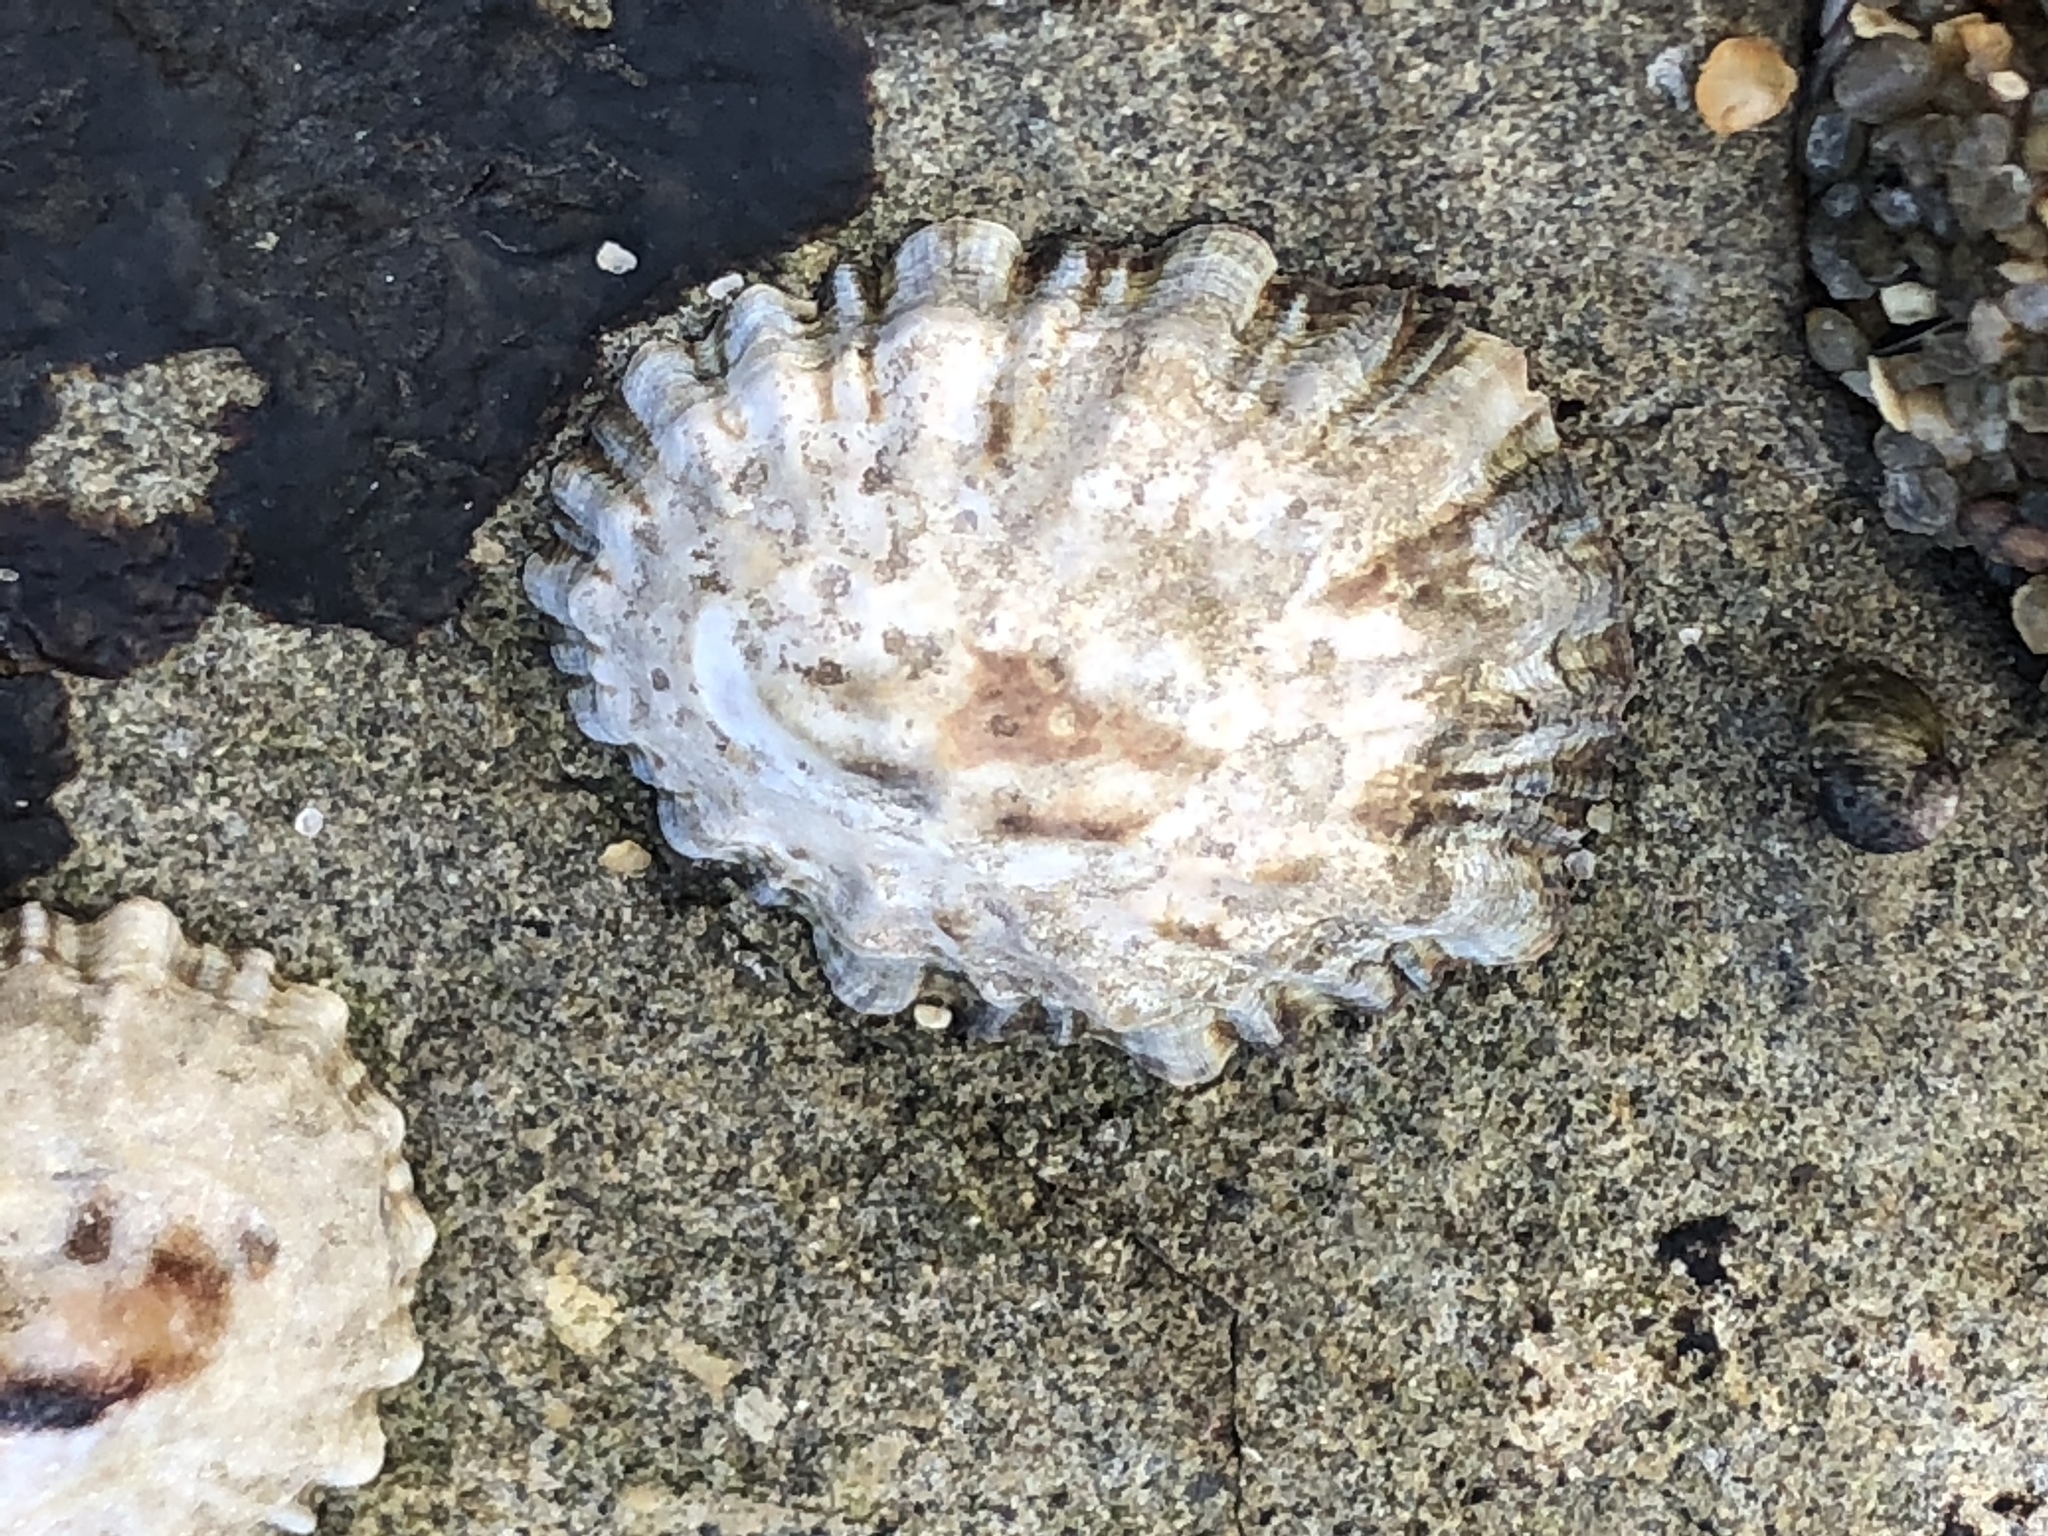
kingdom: Animalia
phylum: Mollusca
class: Gastropoda
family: Lottiidae
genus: Lottia
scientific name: Lottia scabra
